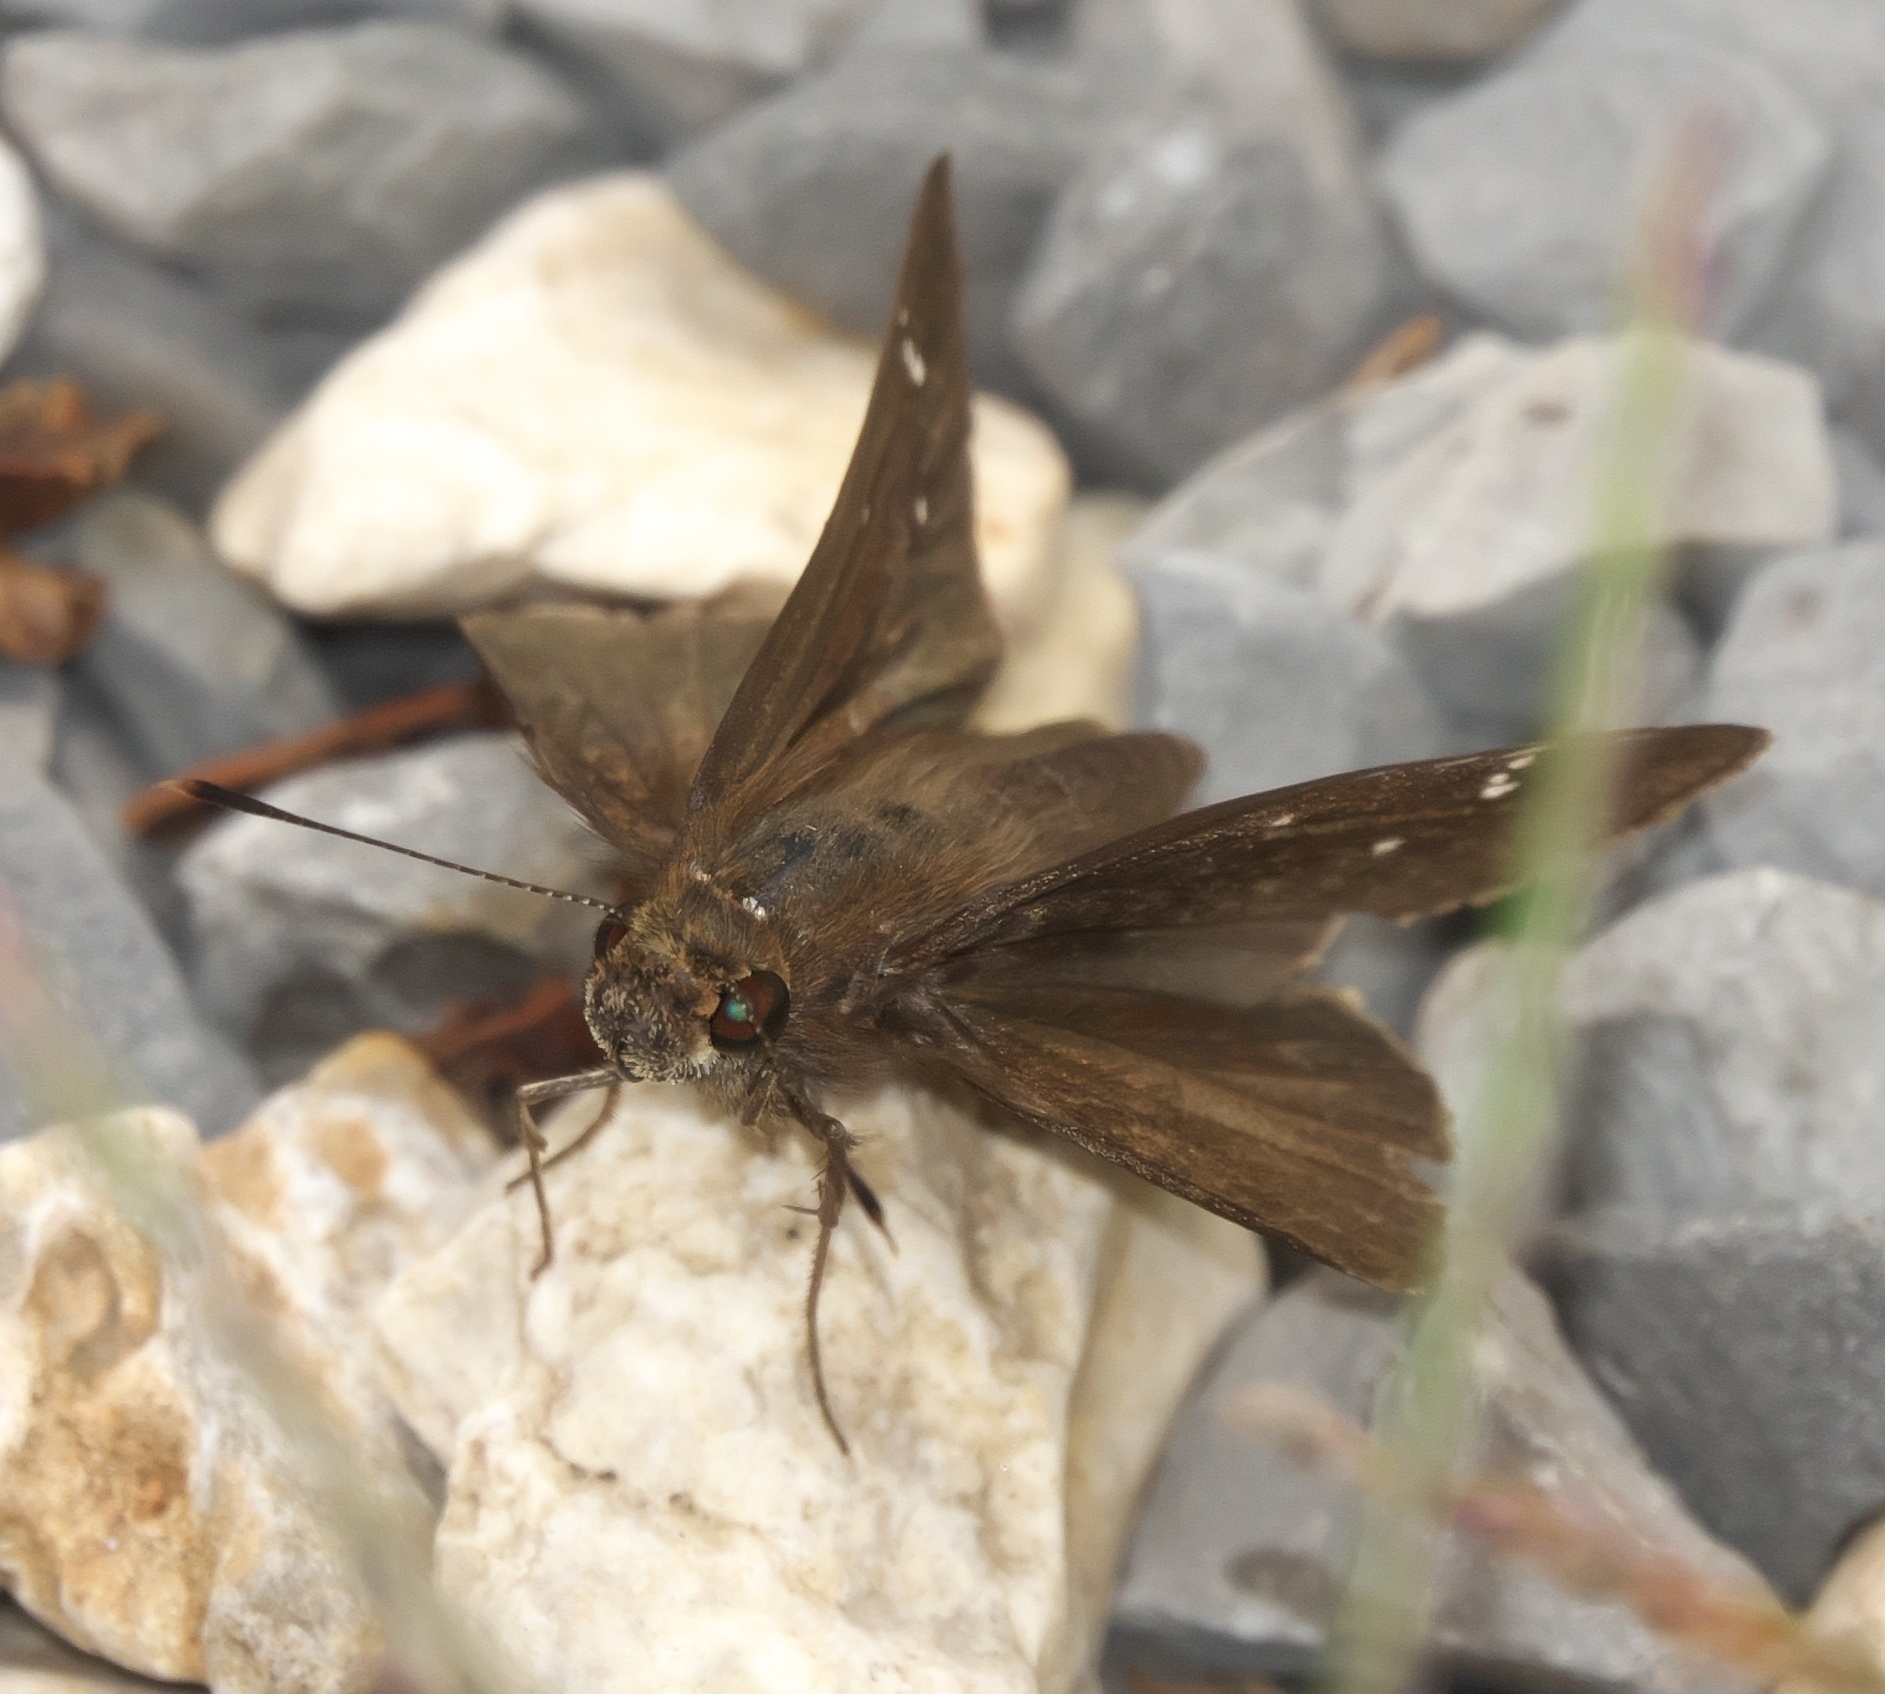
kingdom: Animalia
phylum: Arthropoda
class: Insecta
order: Lepidoptera
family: Hesperiidae
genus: Lerema
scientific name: Lerema accius
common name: Clouded skipper
